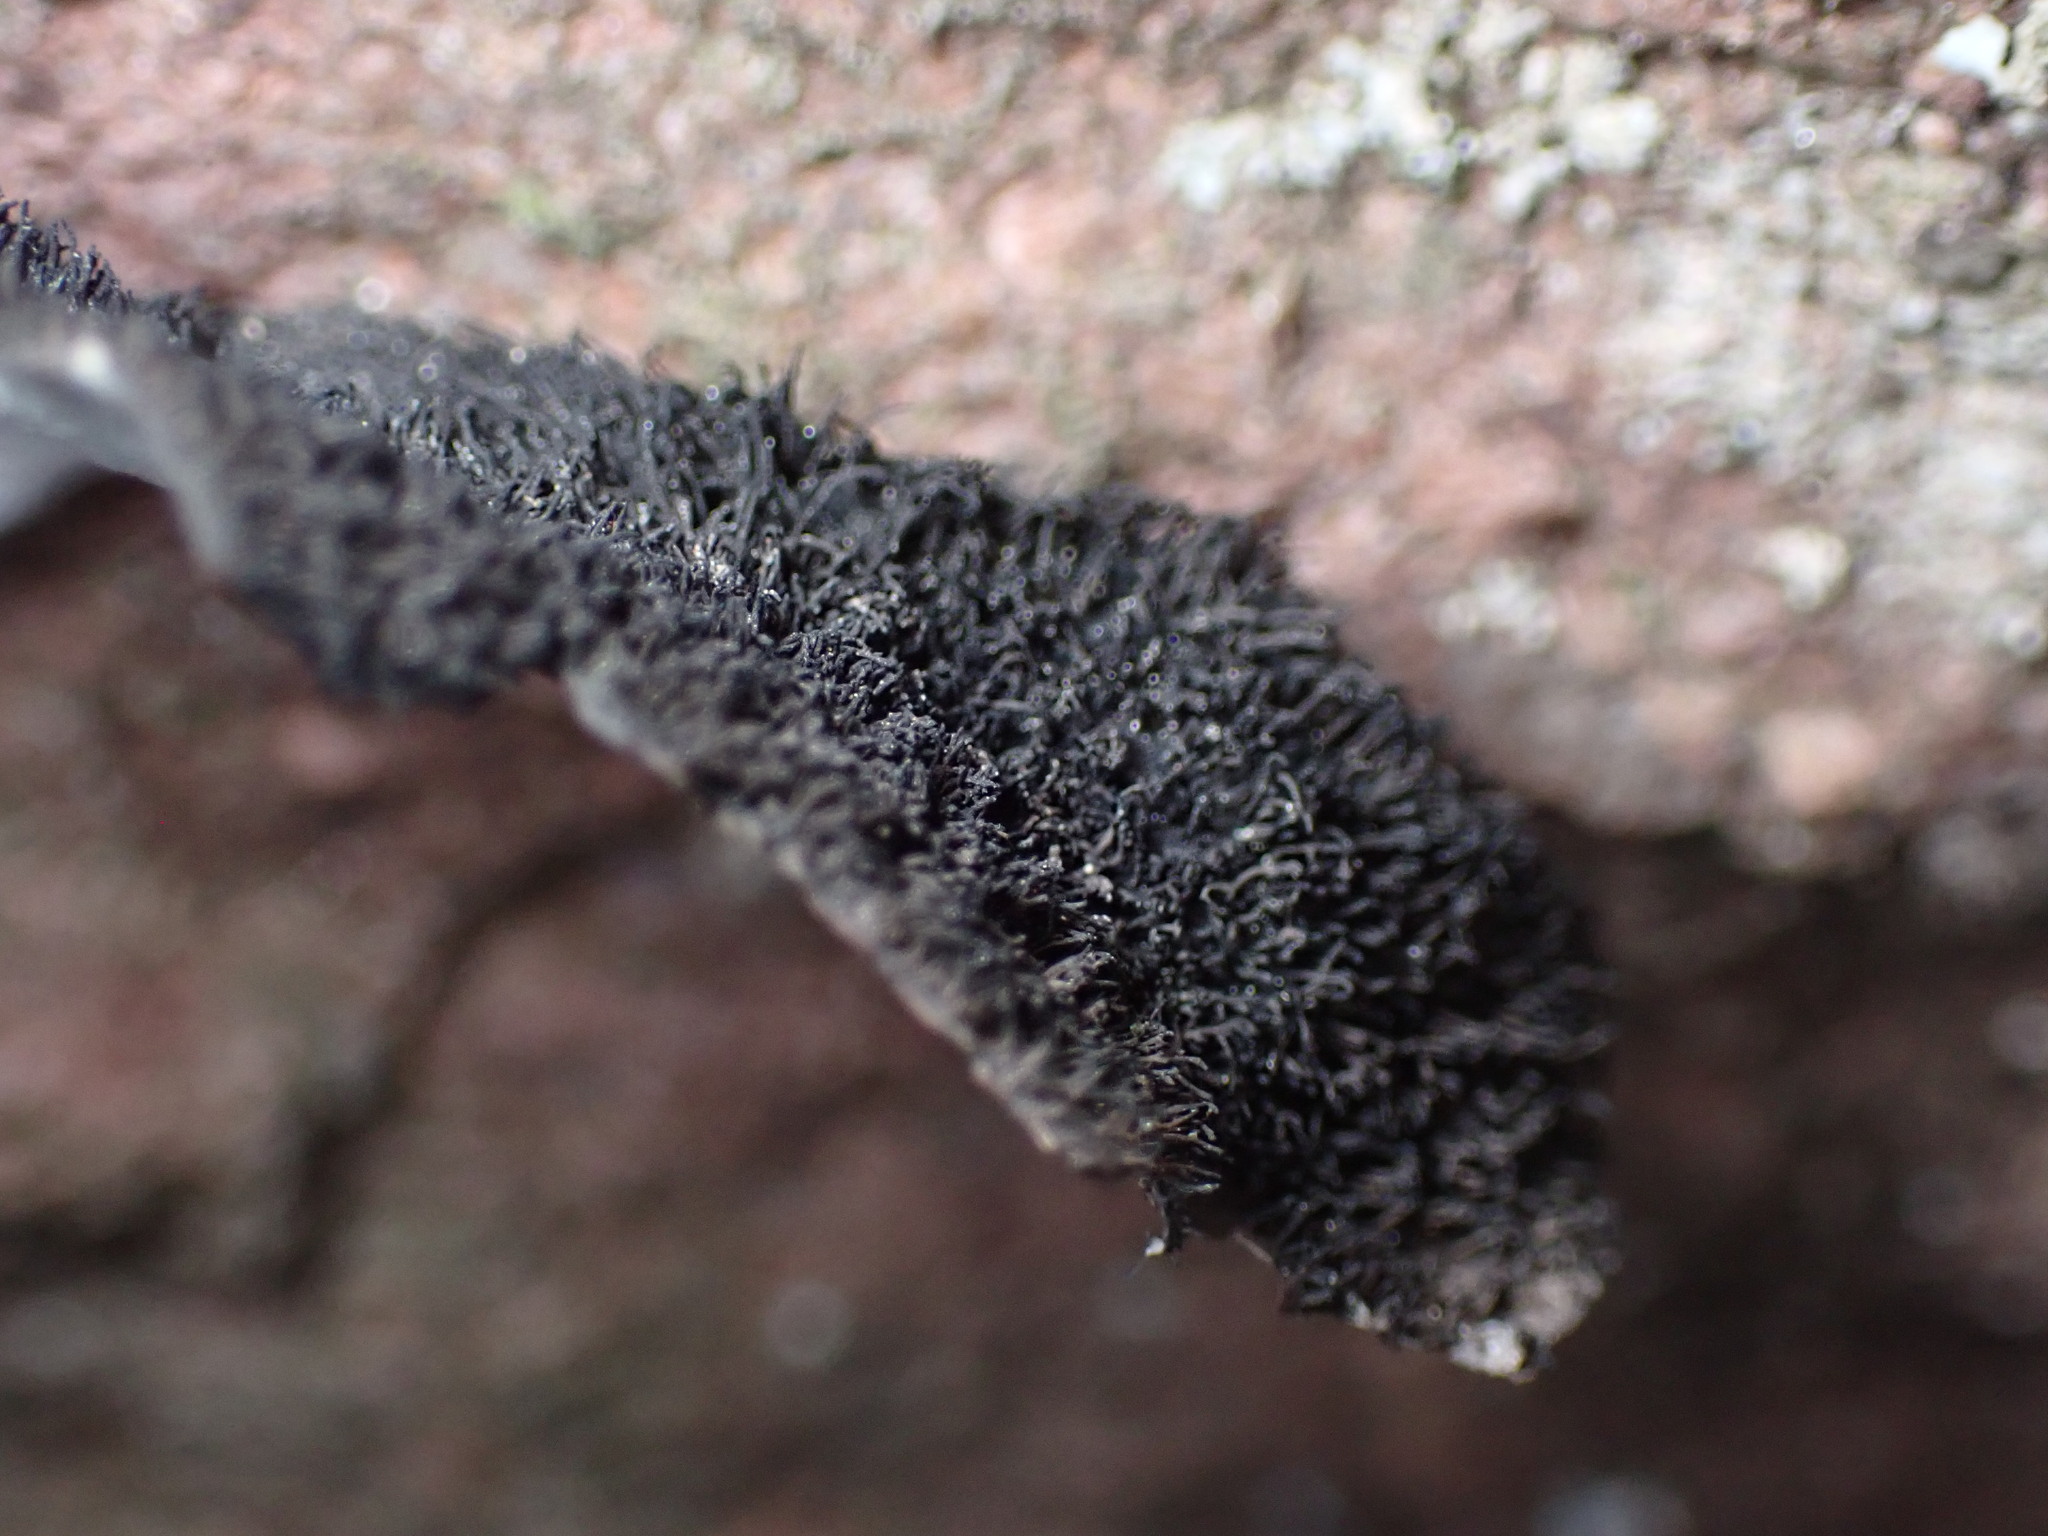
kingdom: Fungi
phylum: Ascomycota
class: Lecanoromycetes
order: Umbilicariales
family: Umbilicariaceae
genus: Umbilicaria
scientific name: Umbilicaria americana
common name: Frosted rock tripe
